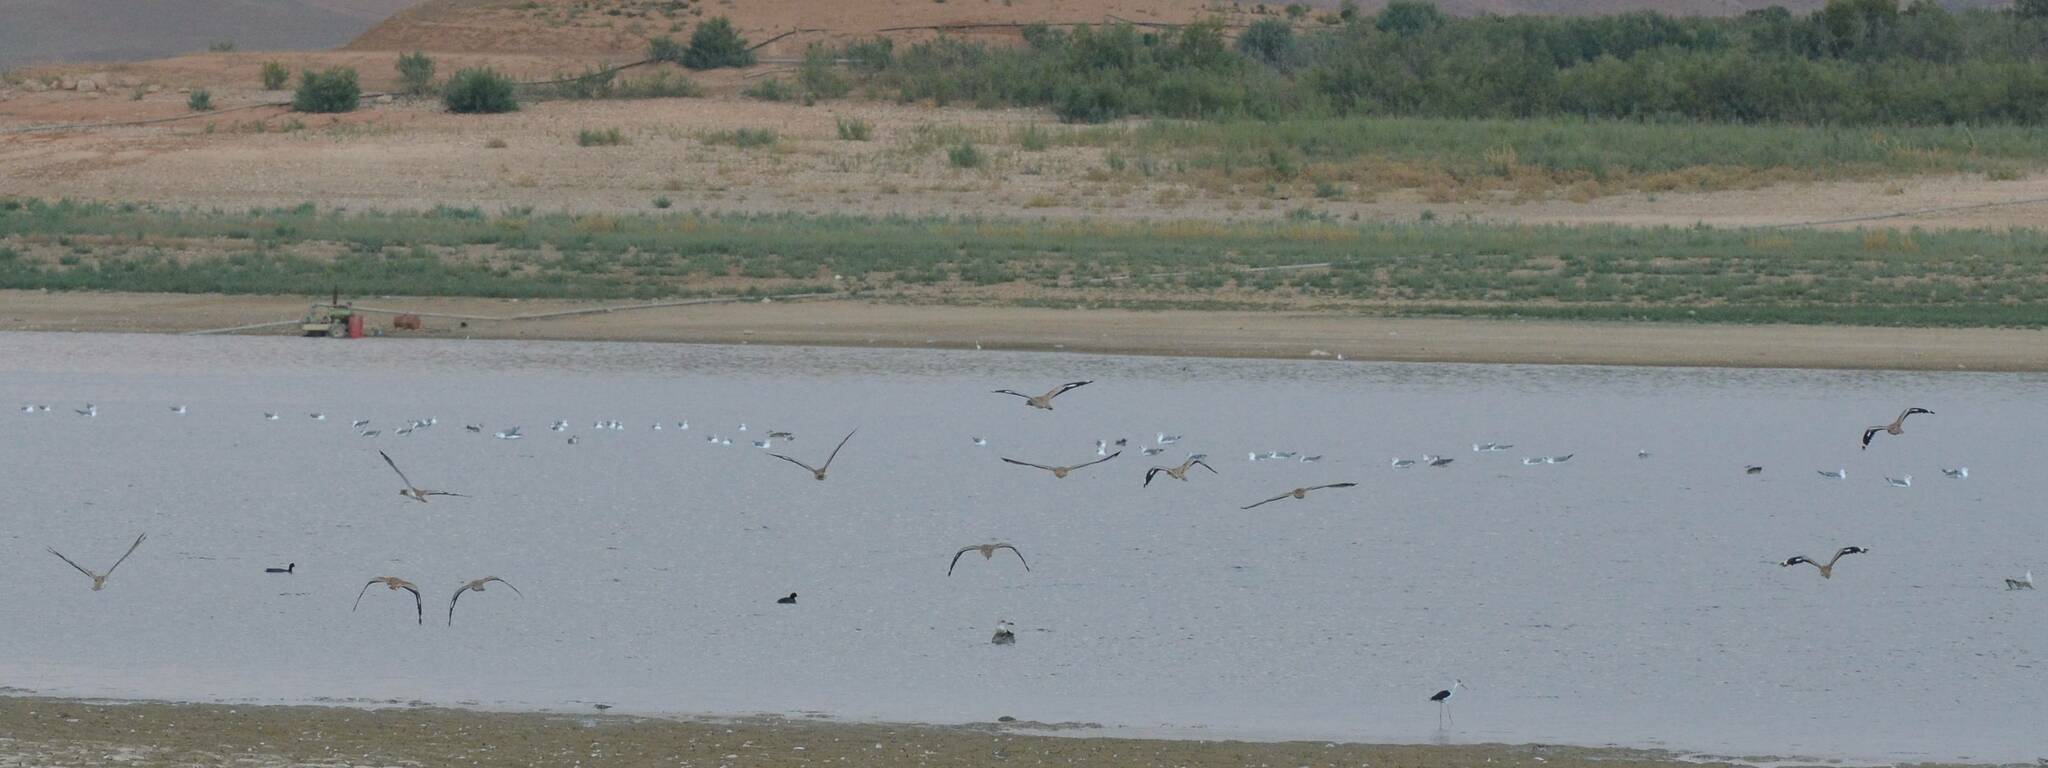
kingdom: Animalia
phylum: Chordata
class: Aves
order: Charadriiformes
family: Burhinidae
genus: Burhinus
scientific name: Burhinus oedicnemus
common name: Eurasian stone-curlew
